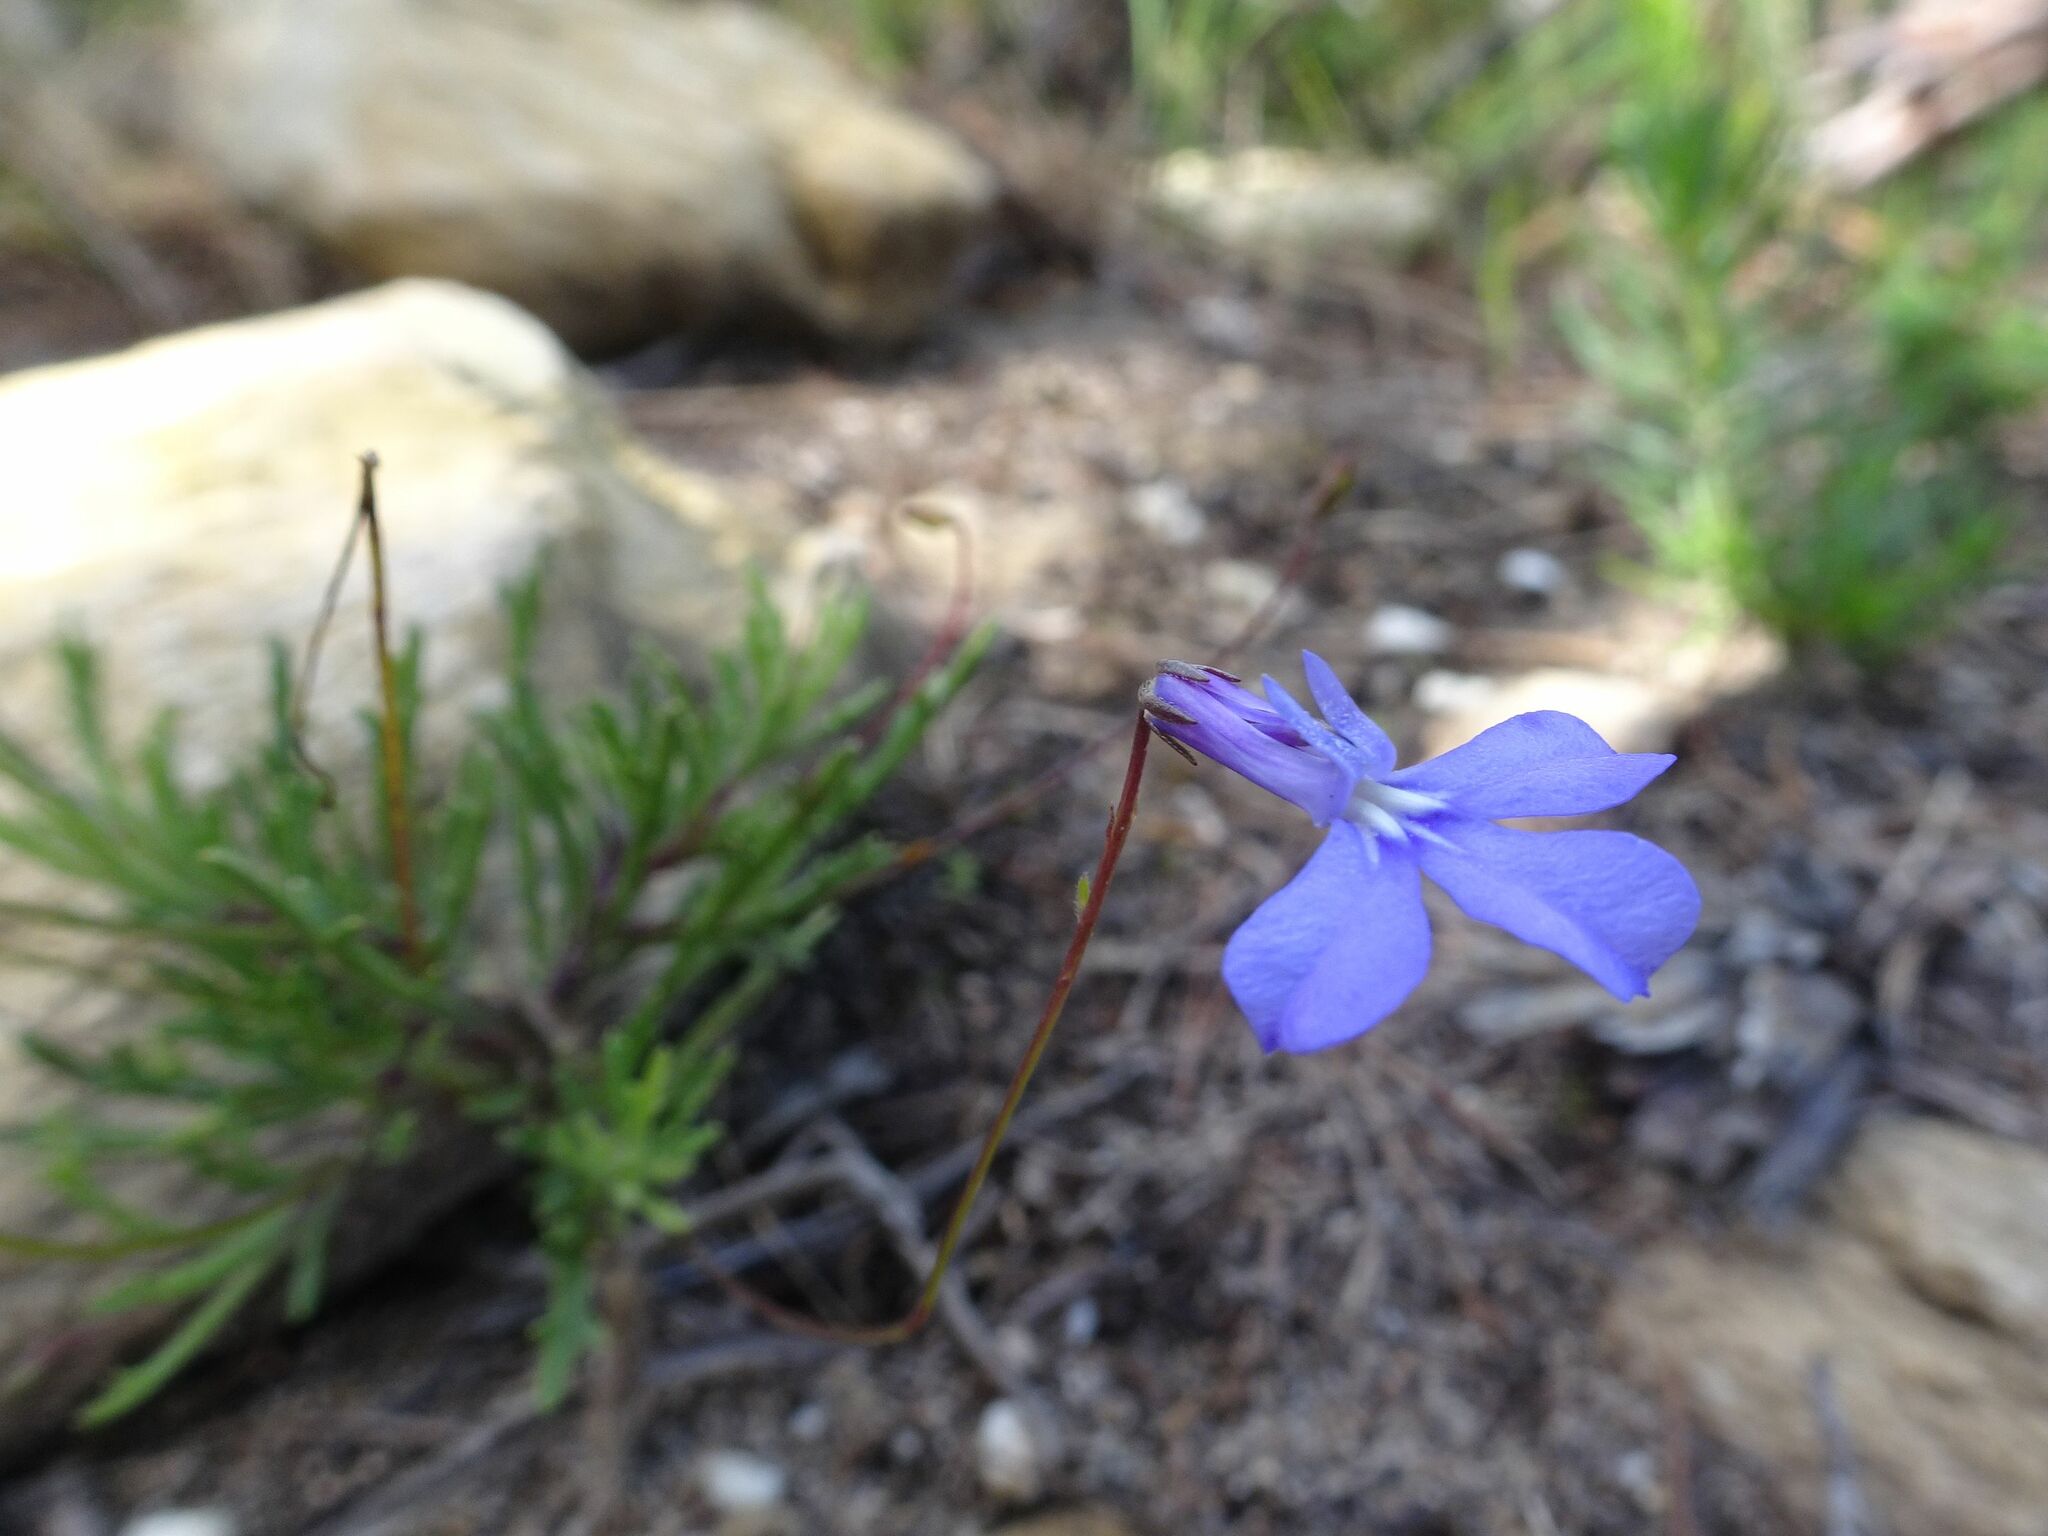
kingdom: Plantae
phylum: Tracheophyta
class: Magnoliopsida
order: Asterales
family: Campanulaceae
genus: Lobelia
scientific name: Lobelia chamaepitys
